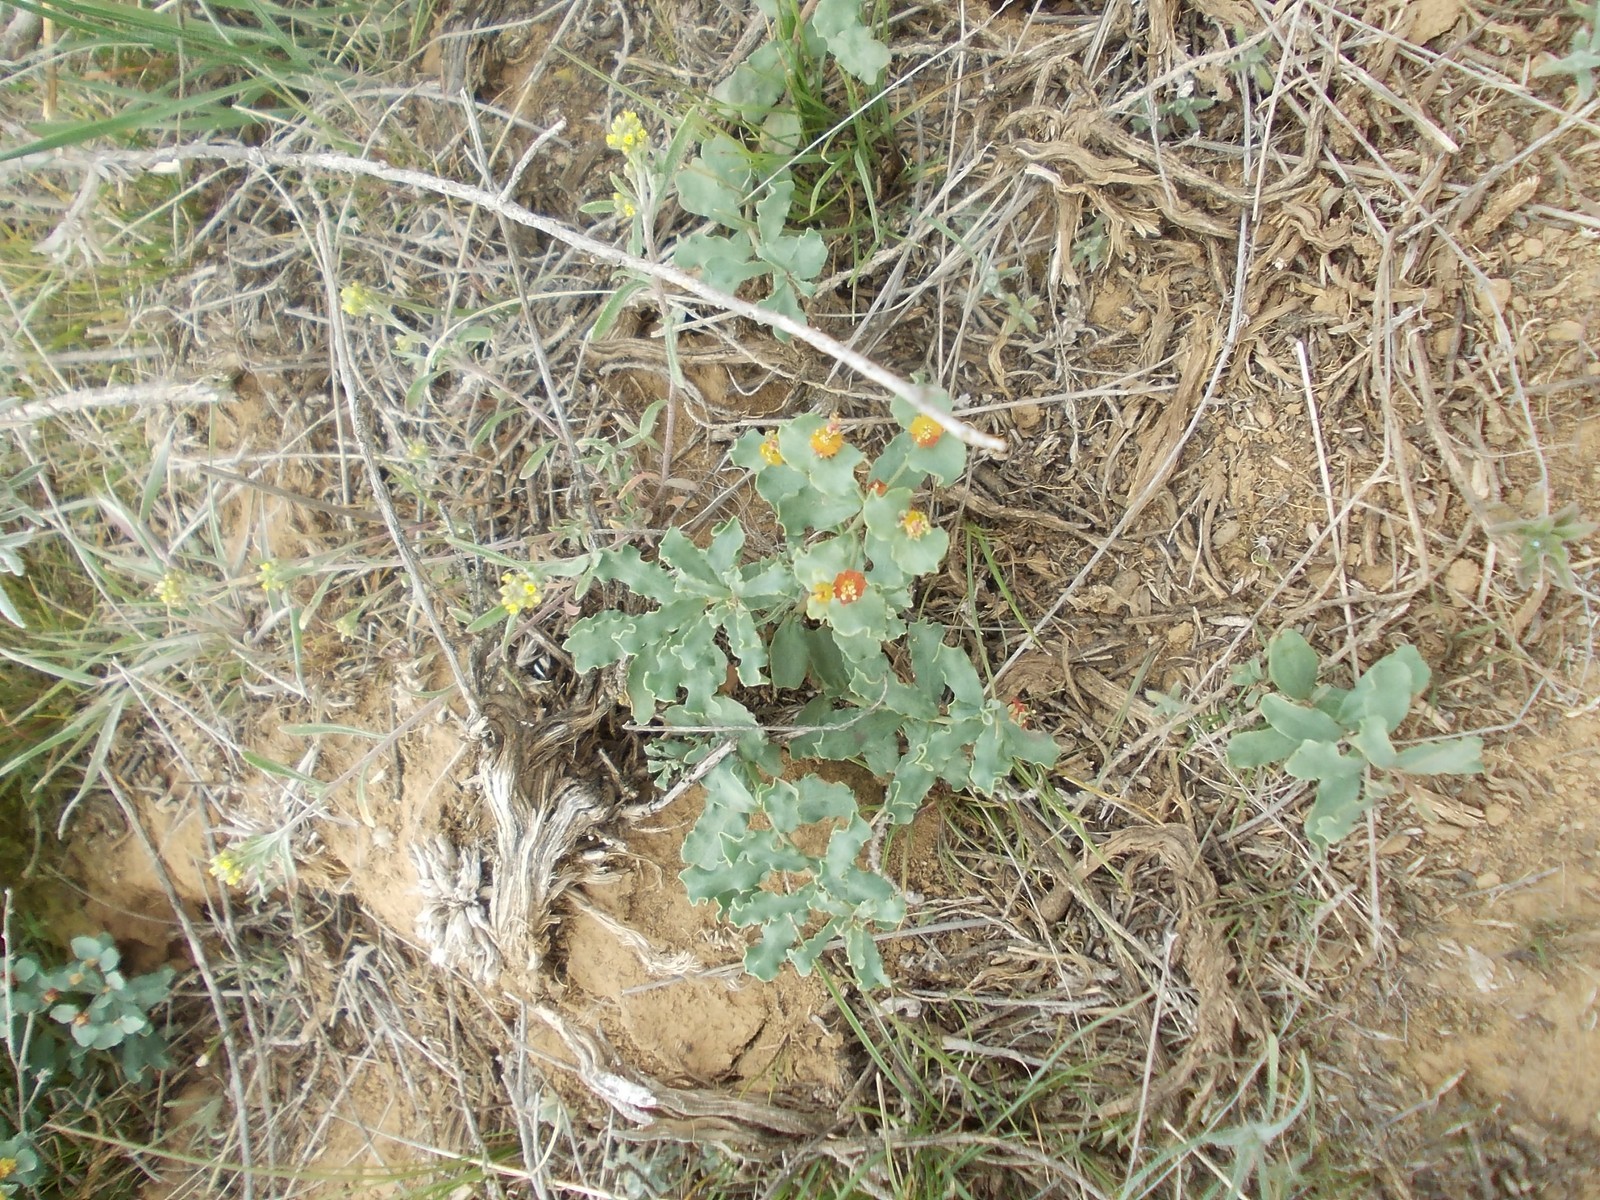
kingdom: Plantae
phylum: Tracheophyta
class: Magnoliopsida
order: Malpighiales
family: Euphorbiaceae
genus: Euphorbia
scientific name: Euphorbia undulata
